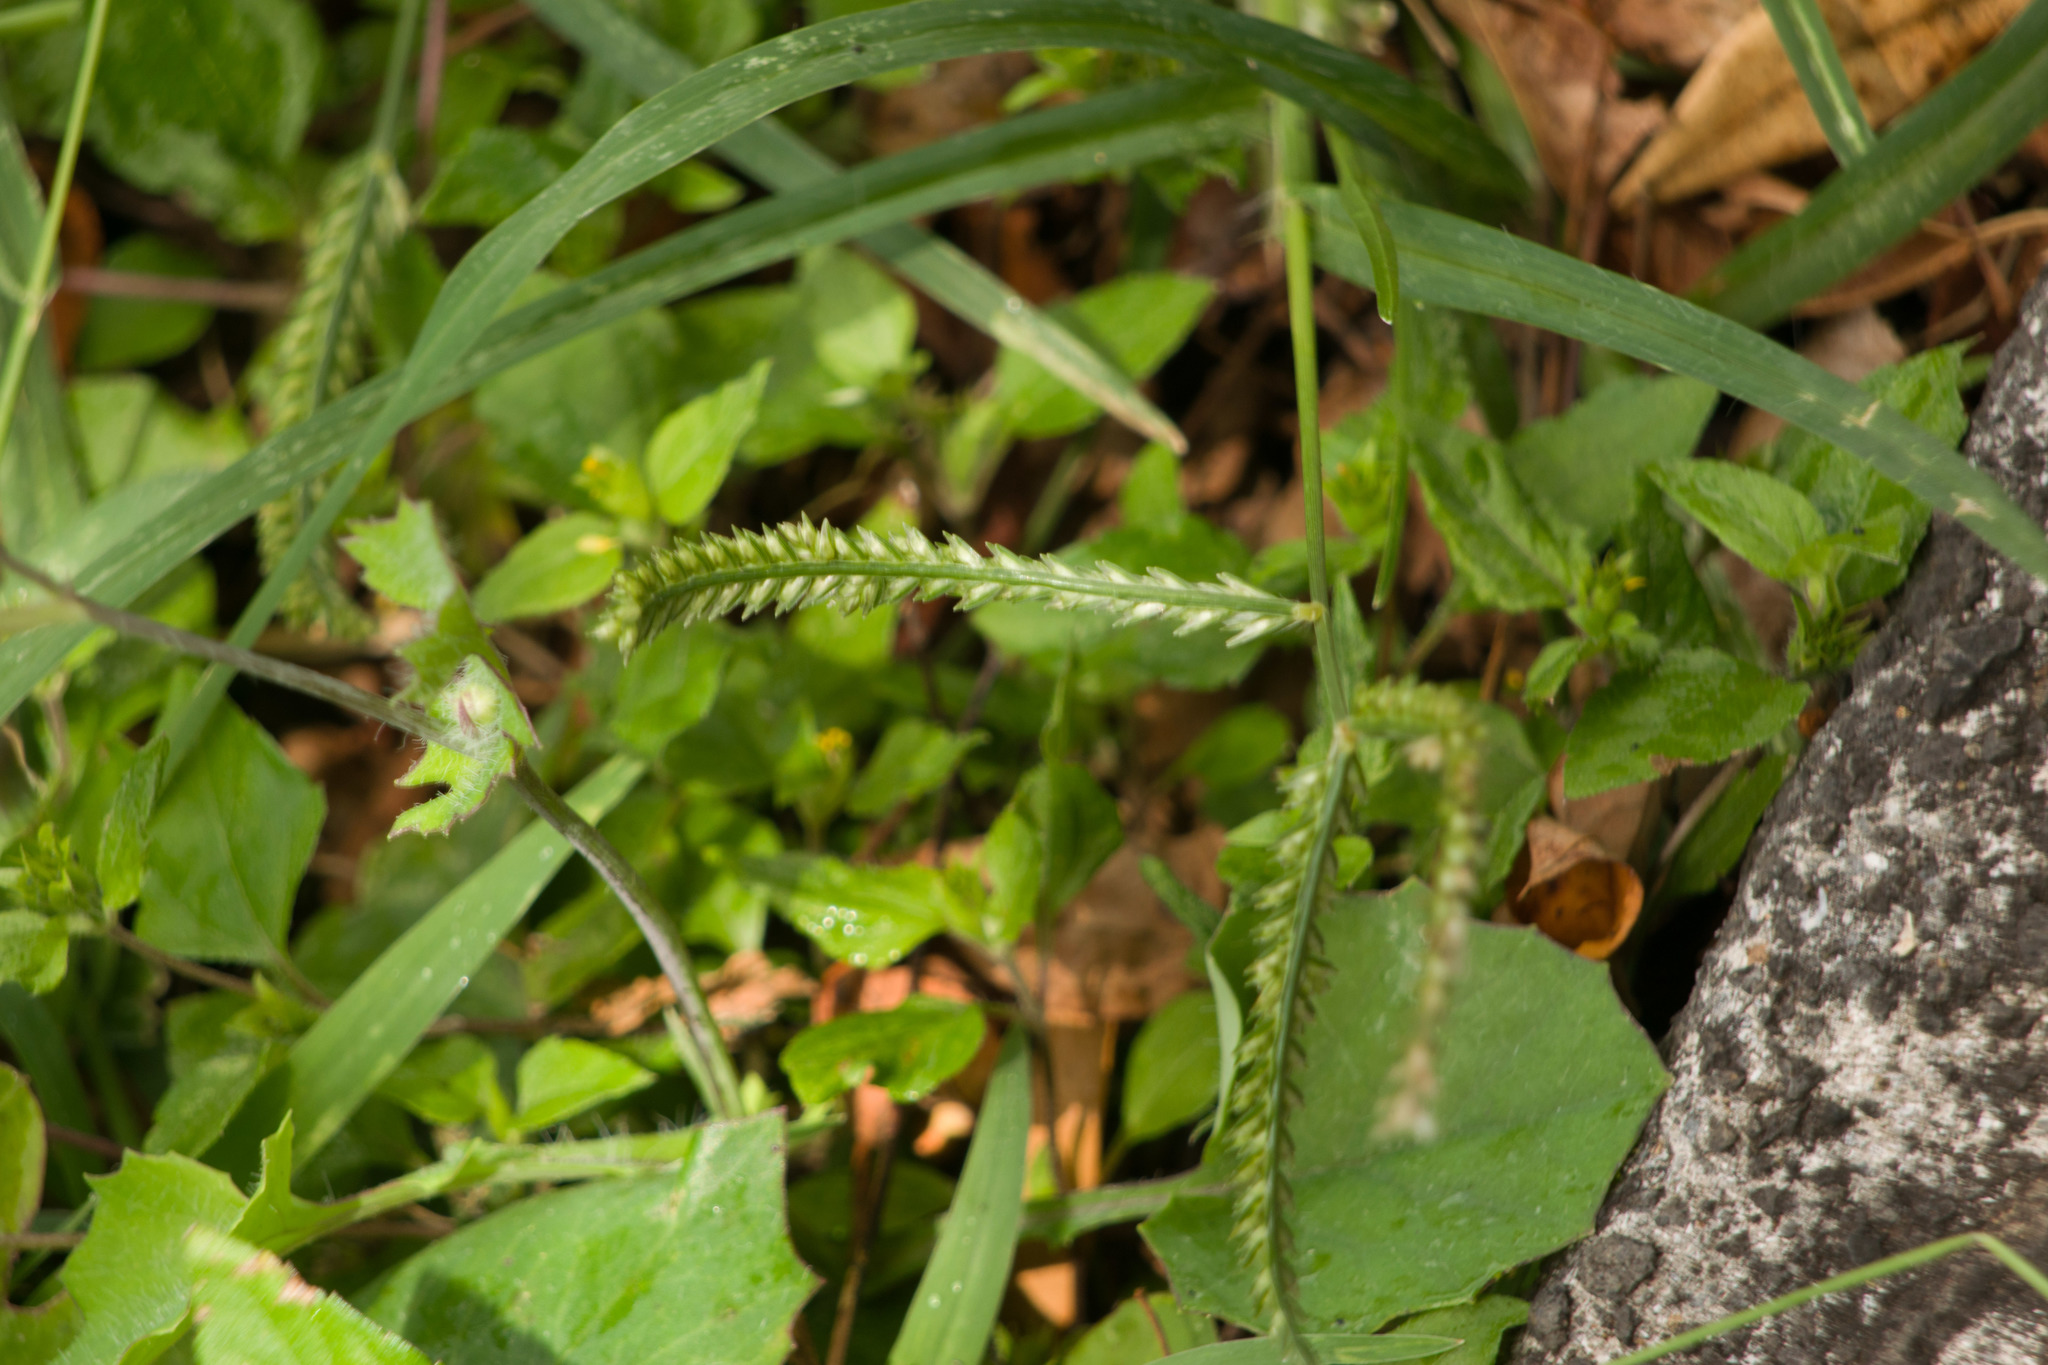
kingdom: Plantae
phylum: Tracheophyta
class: Liliopsida
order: Poales
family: Poaceae
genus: Eleusine
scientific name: Eleusine indica
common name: Yard-grass
